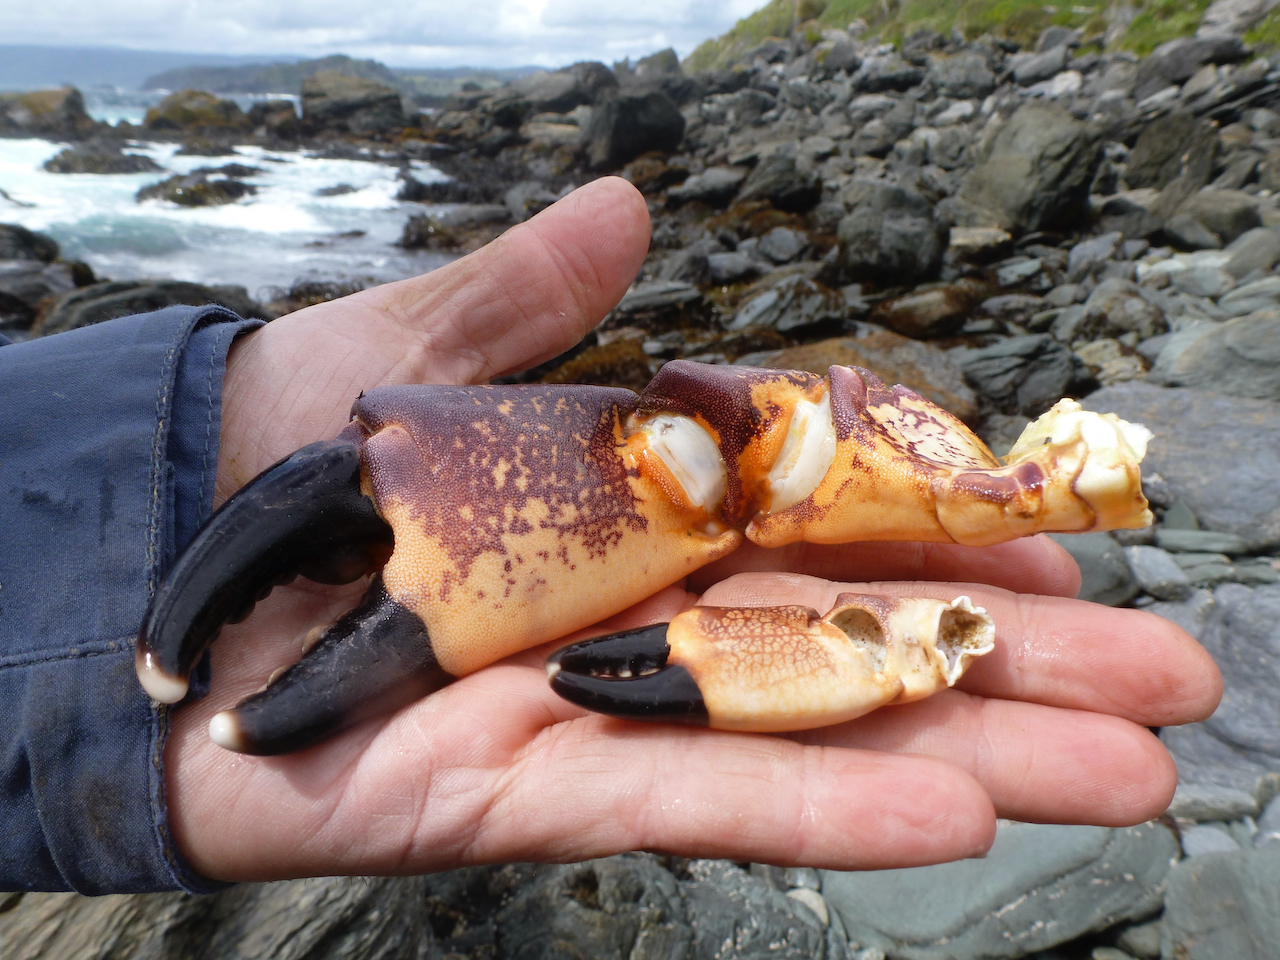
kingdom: Animalia
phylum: Arthropoda
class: Malacostraca
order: Decapoda
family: Platyxanthidae
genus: Homalaspis
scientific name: Homalaspis plana
